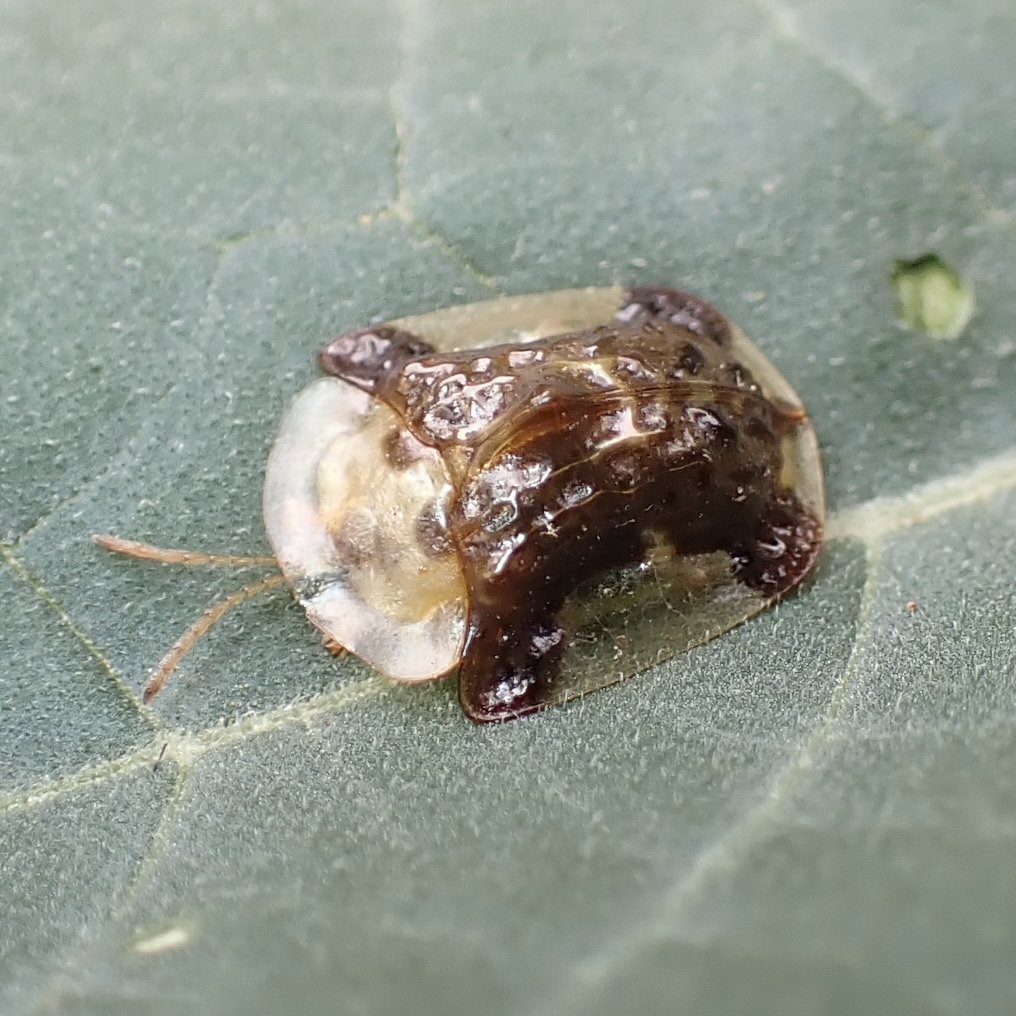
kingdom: Animalia
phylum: Arthropoda
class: Insecta
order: Coleoptera
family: Chrysomelidae
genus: Helocassis
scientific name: Helocassis testudinaria
